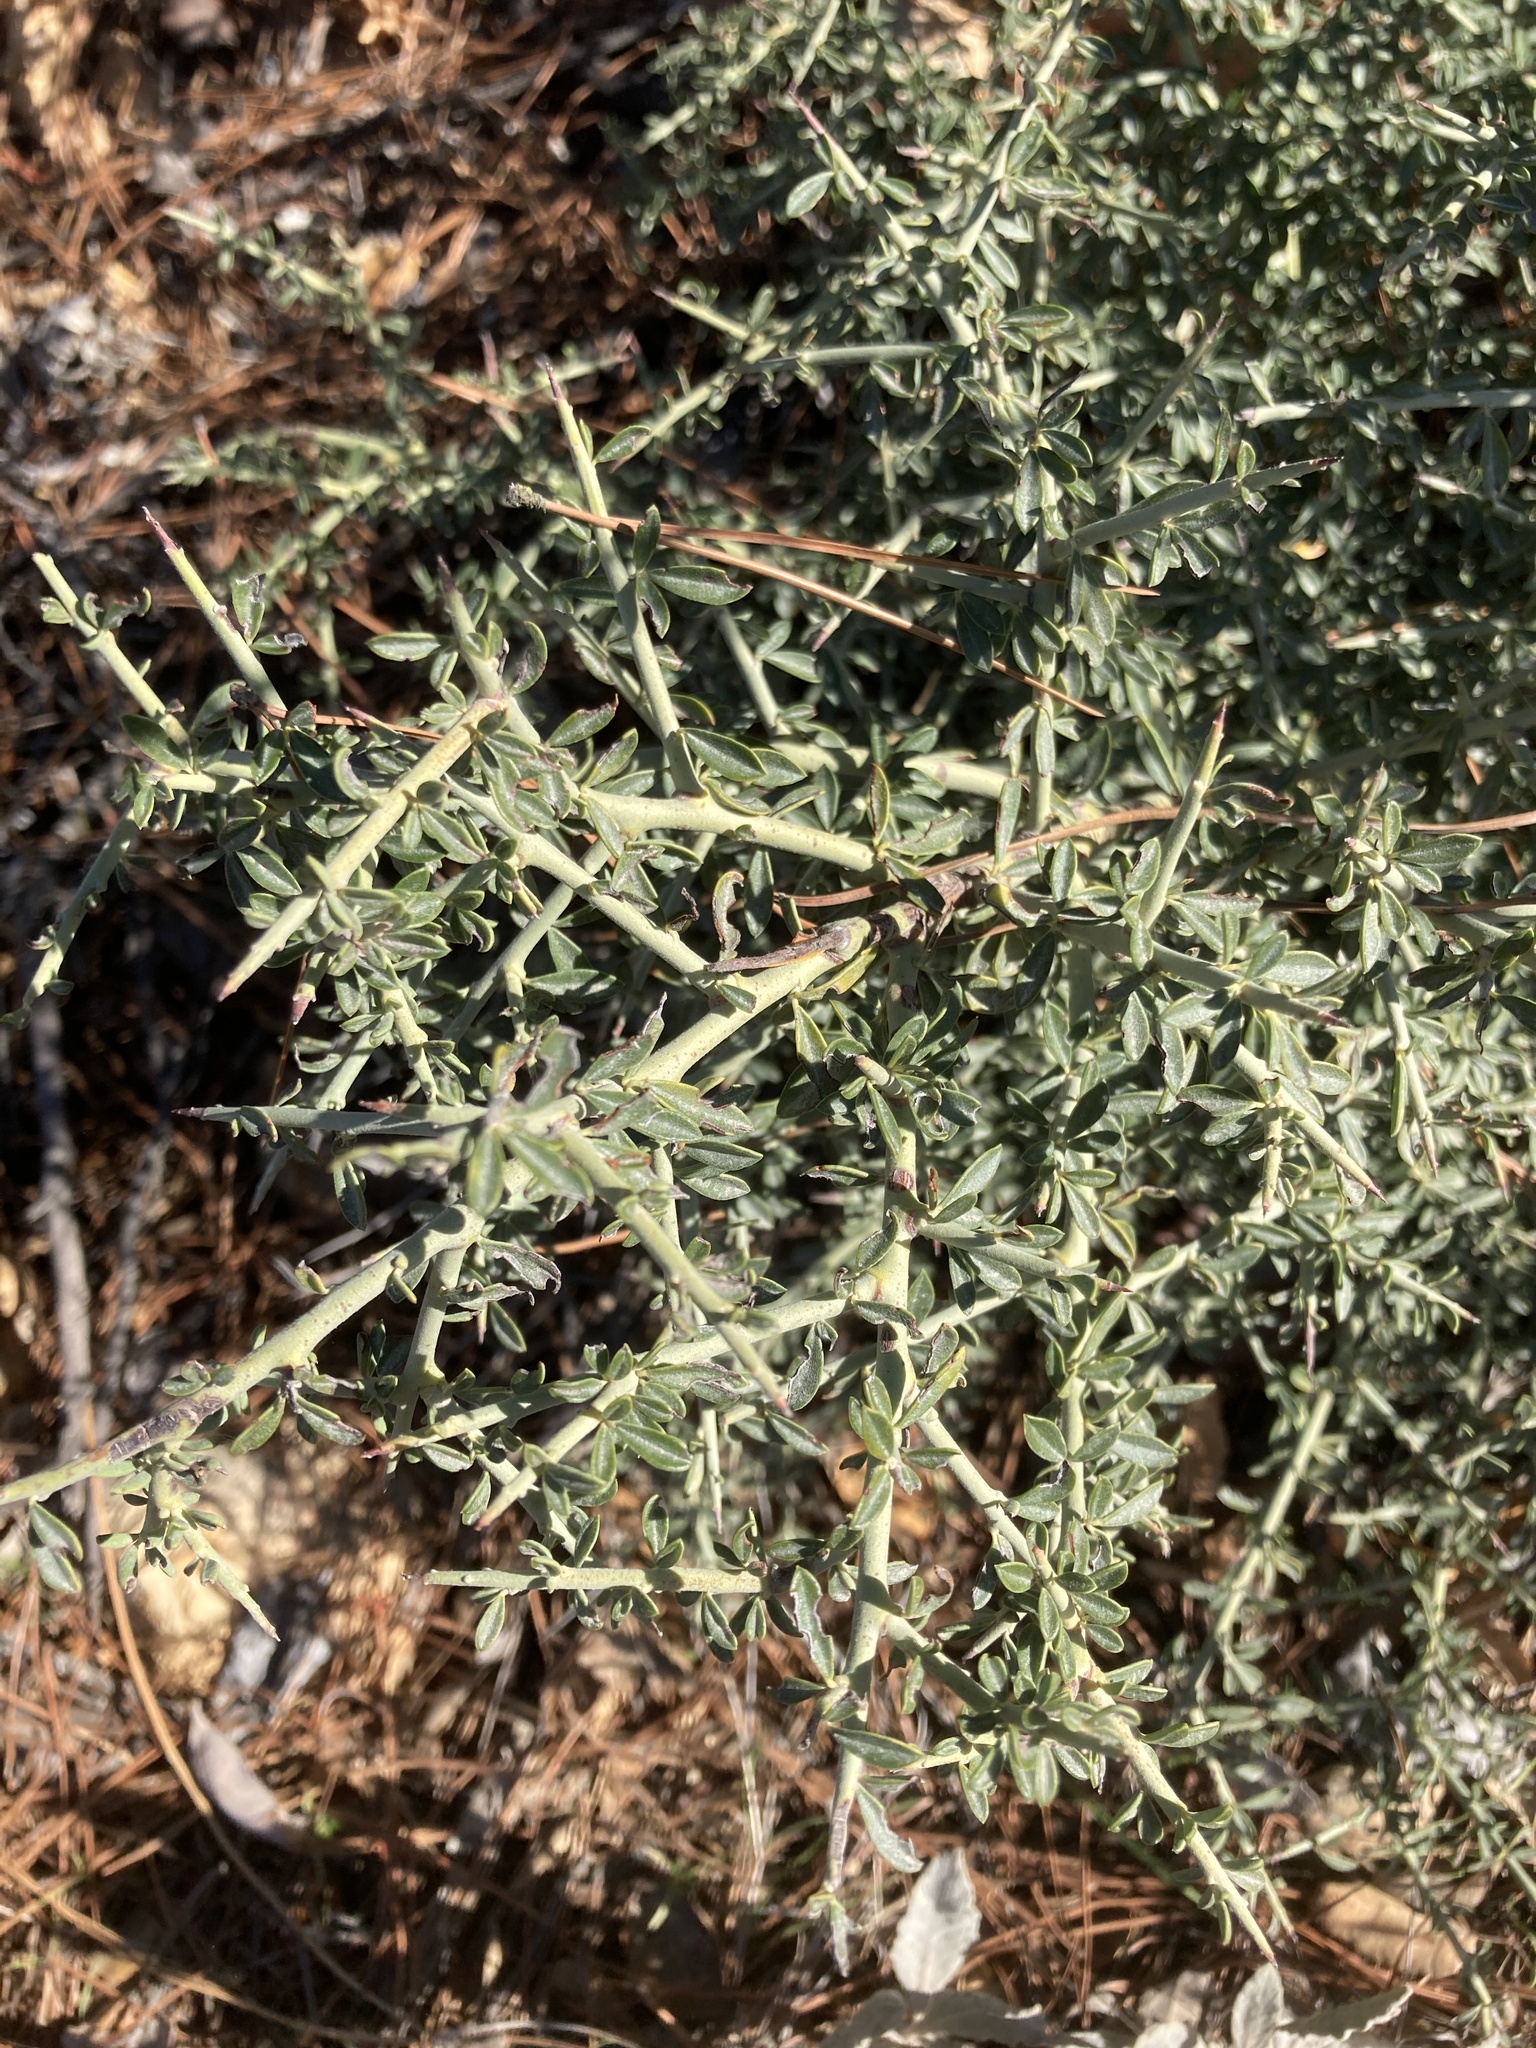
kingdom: Plantae
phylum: Tracheophyta
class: Magnoliopsida
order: Fabales
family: Fabaceae
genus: Pickeringia
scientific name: Pickeringia montana
